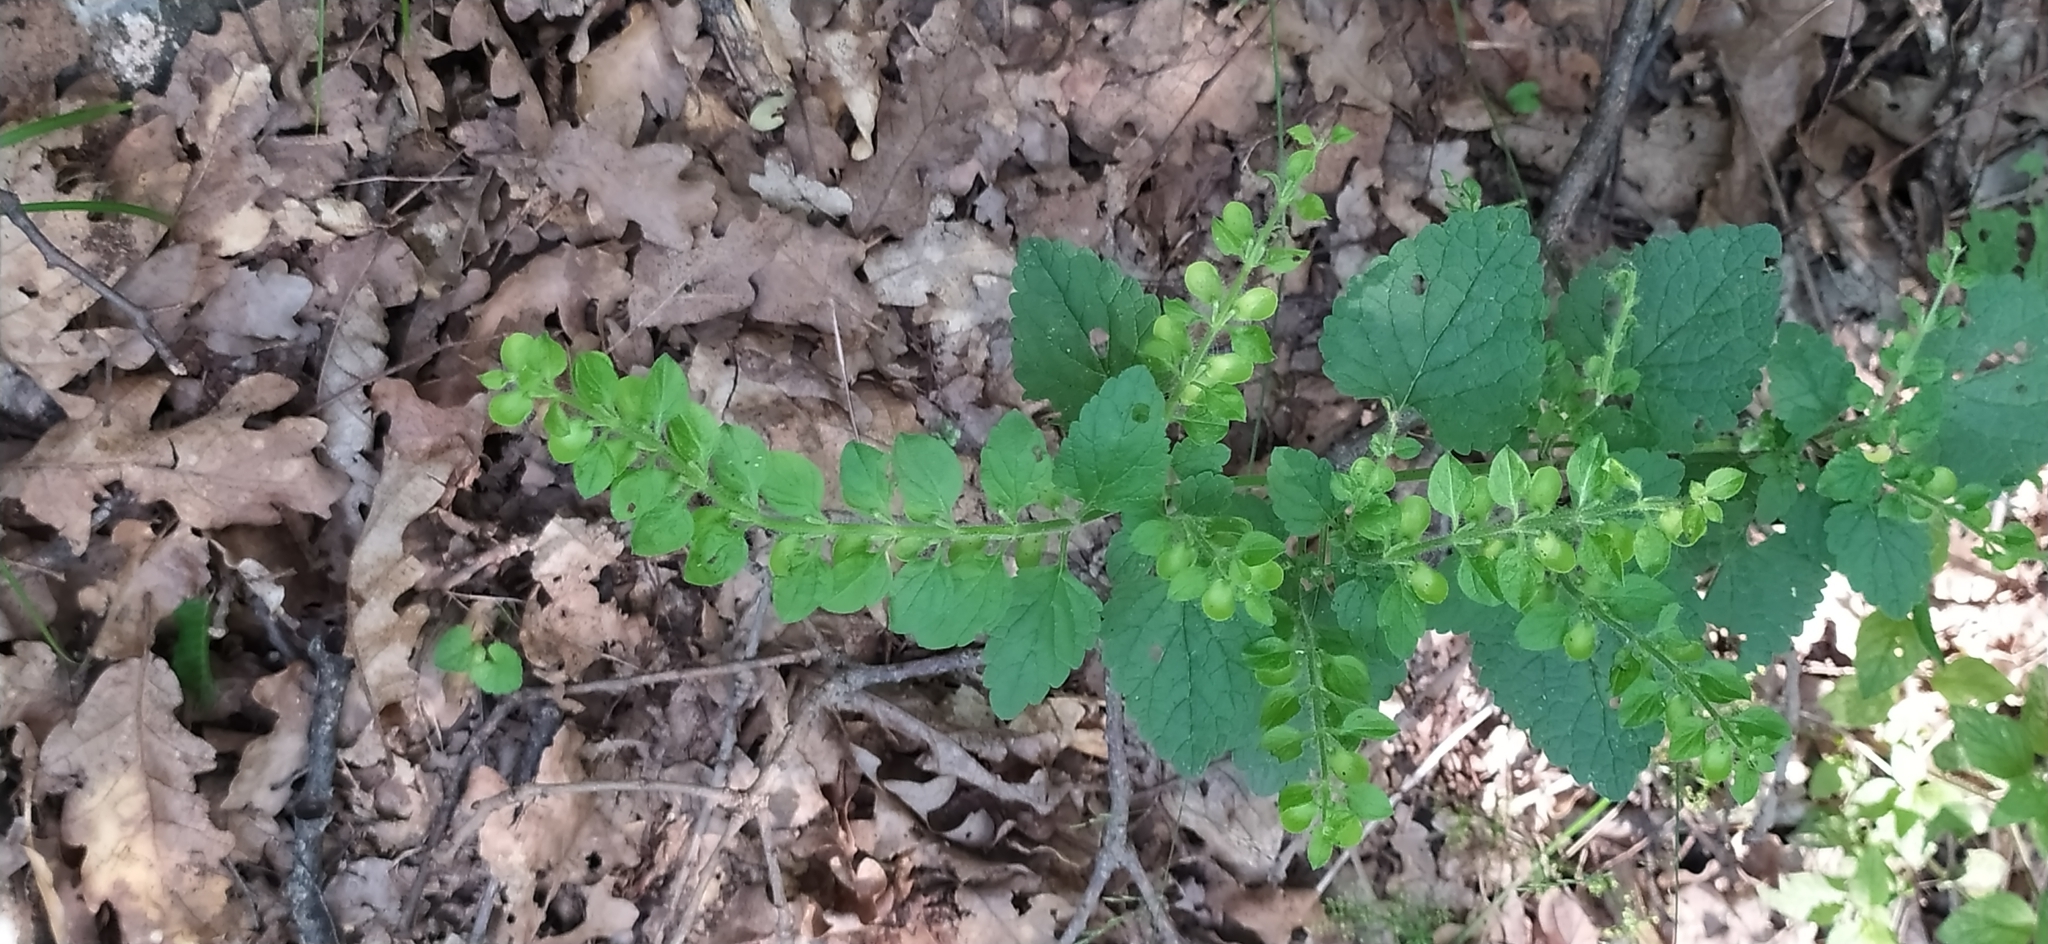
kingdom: Plantae
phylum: Tracheophyta
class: Magnoliopsida
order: Lamiales
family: Lamiaceae
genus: Scutellaria
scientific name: Scutellaria altissima
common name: Somerset skullcap
